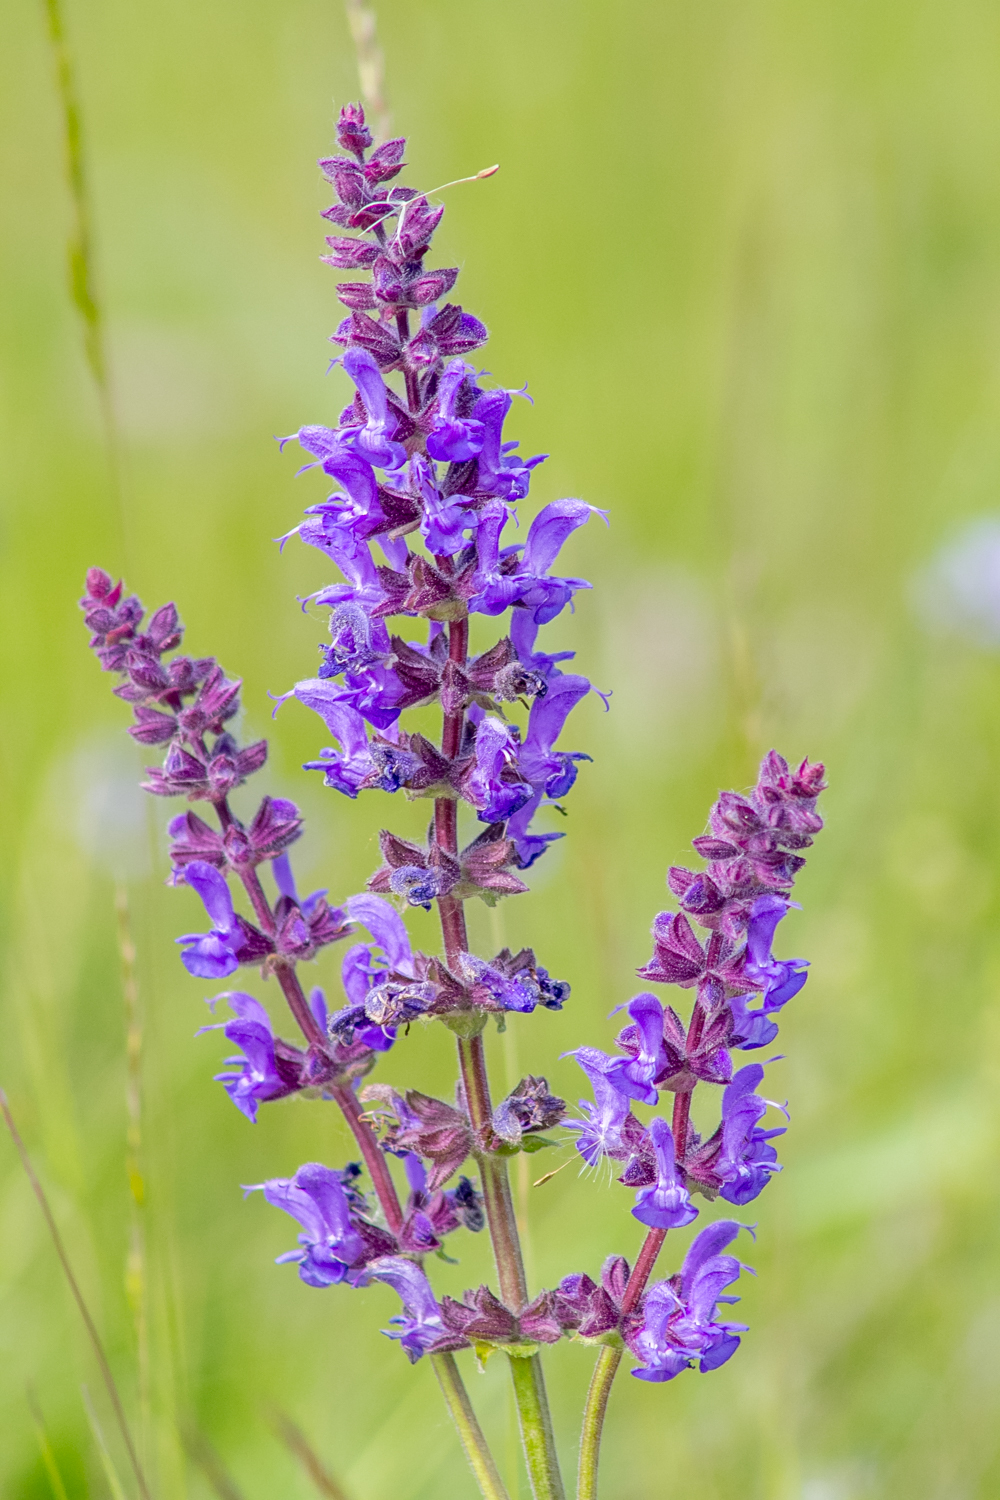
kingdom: Plantae
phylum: Tracheophyta
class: Magnoliopsida
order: Lamiales
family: Lamiaceae
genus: Salvia
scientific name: Salvia dumetorum
